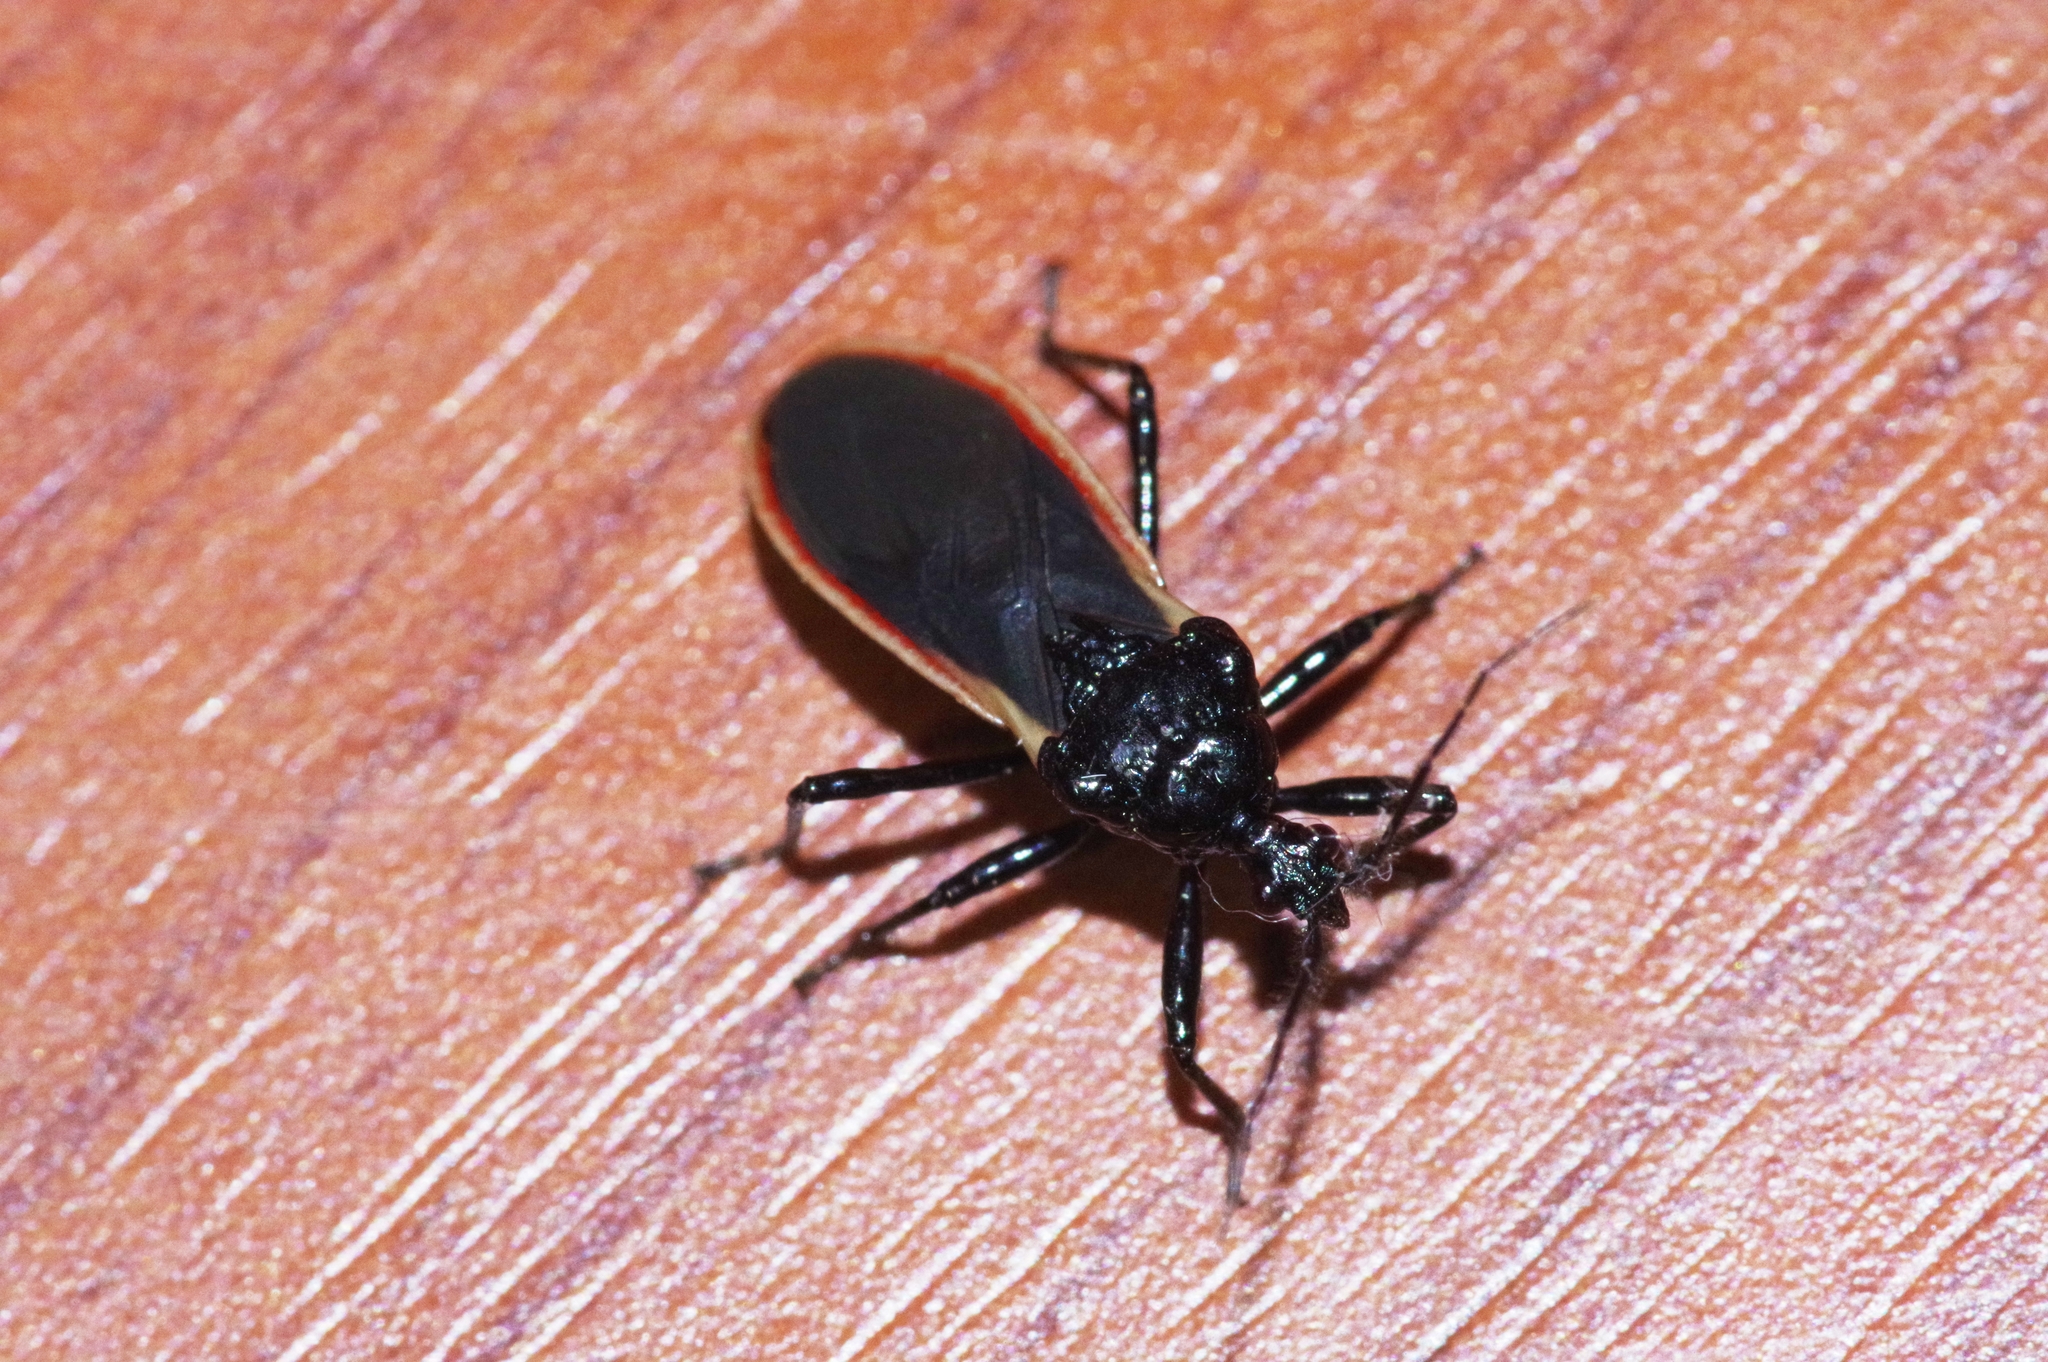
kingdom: Animalia
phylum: Arthropoda
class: Insecta
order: Hemiptera
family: Reduviidae
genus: Scadra
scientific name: Scadra okinawensis
